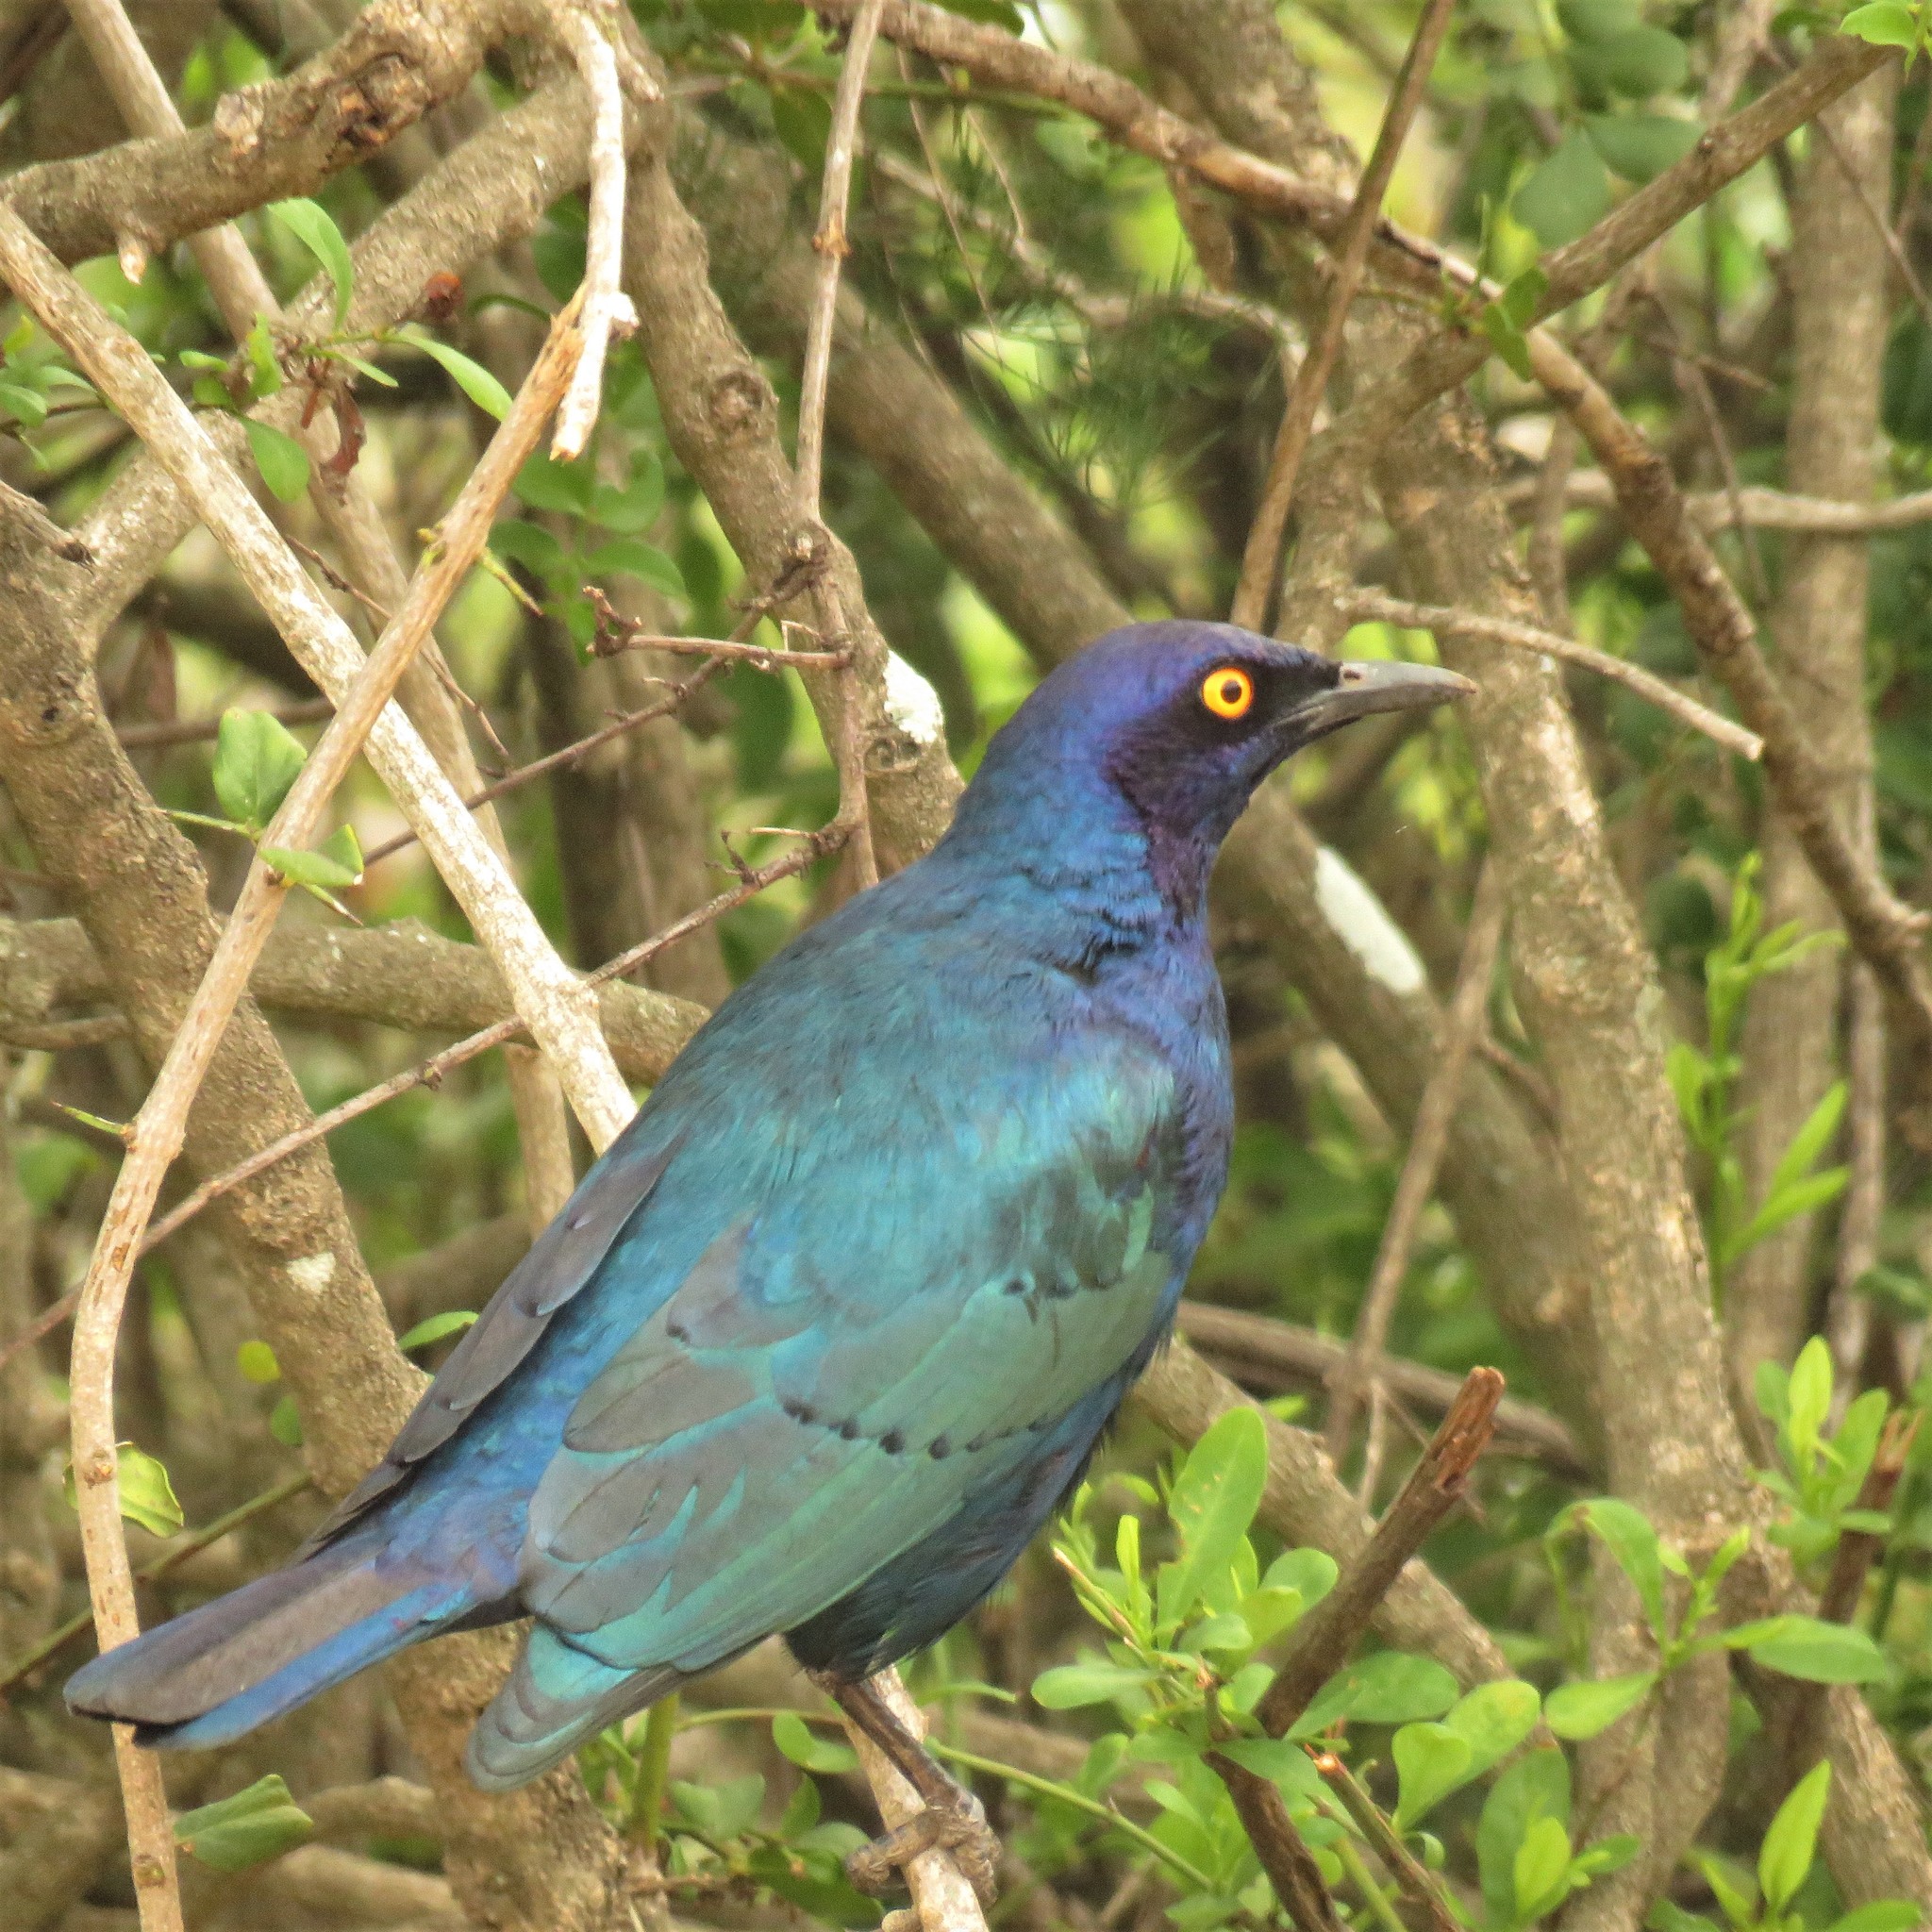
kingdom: Animalia
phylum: Chordata
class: Aves
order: Passeriformes
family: Sturnidae
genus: Lamprotornis
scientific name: Lamprotornis nitens
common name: Cape starling
